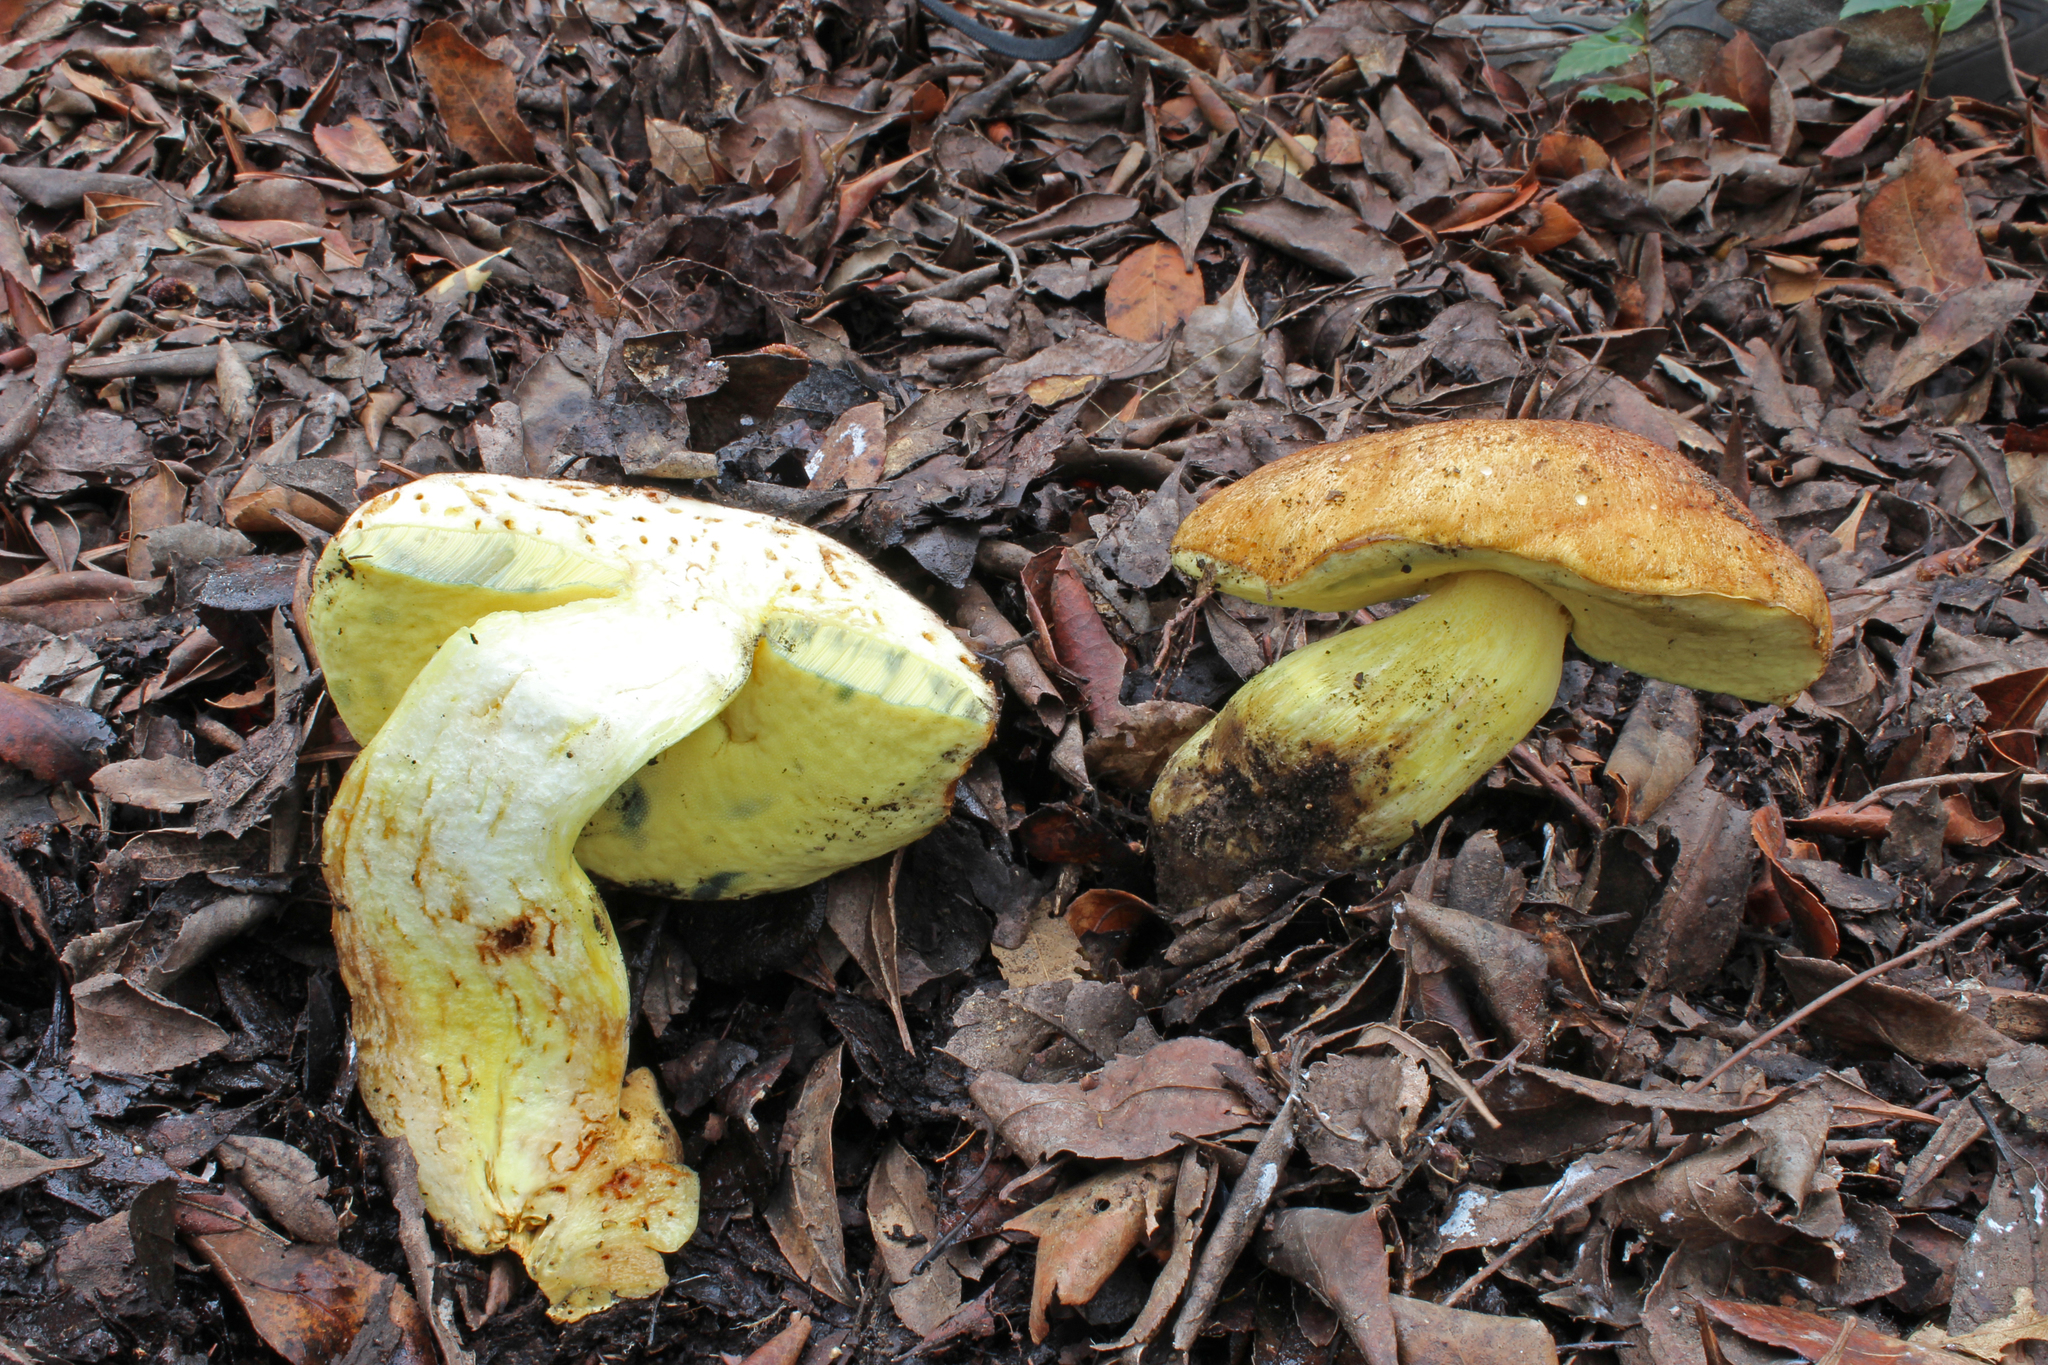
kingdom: Fungi
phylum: Basidiomycota
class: Agaricomycetes
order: Boletales
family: Boletaceae
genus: Butyriboletus
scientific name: Butyriboletus appendiculatus
